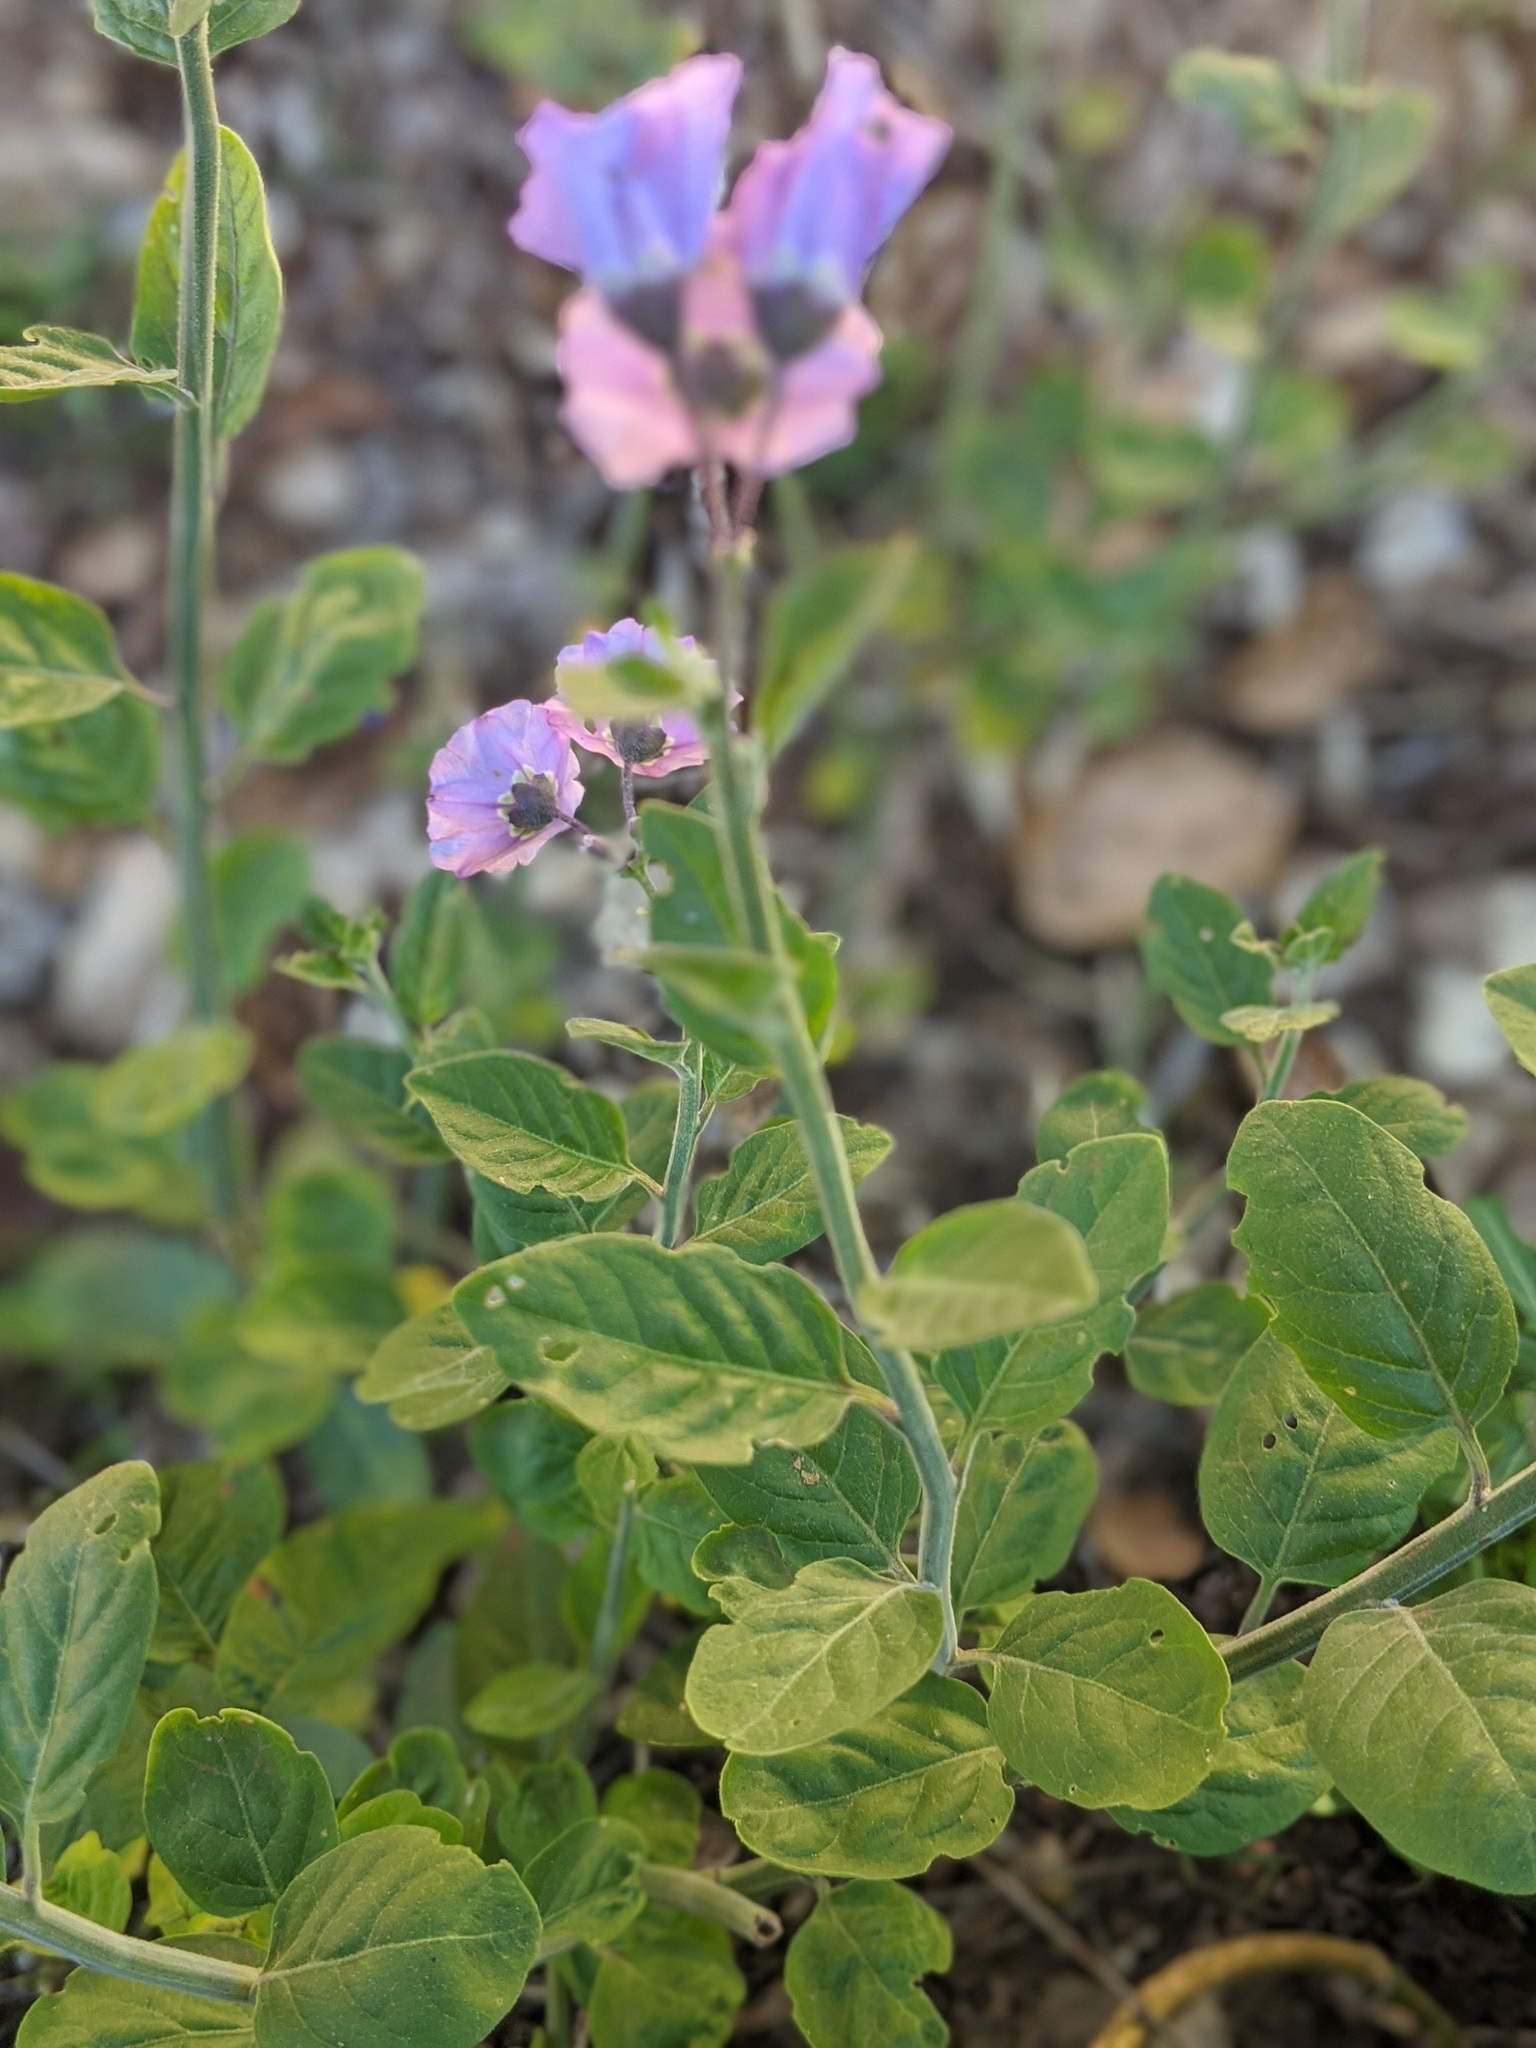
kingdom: Plantae
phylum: Tracheophyta
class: Magnoliopsida
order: Solanales
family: Solanaceae
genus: Solanum
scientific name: Solanum umbelliferum
